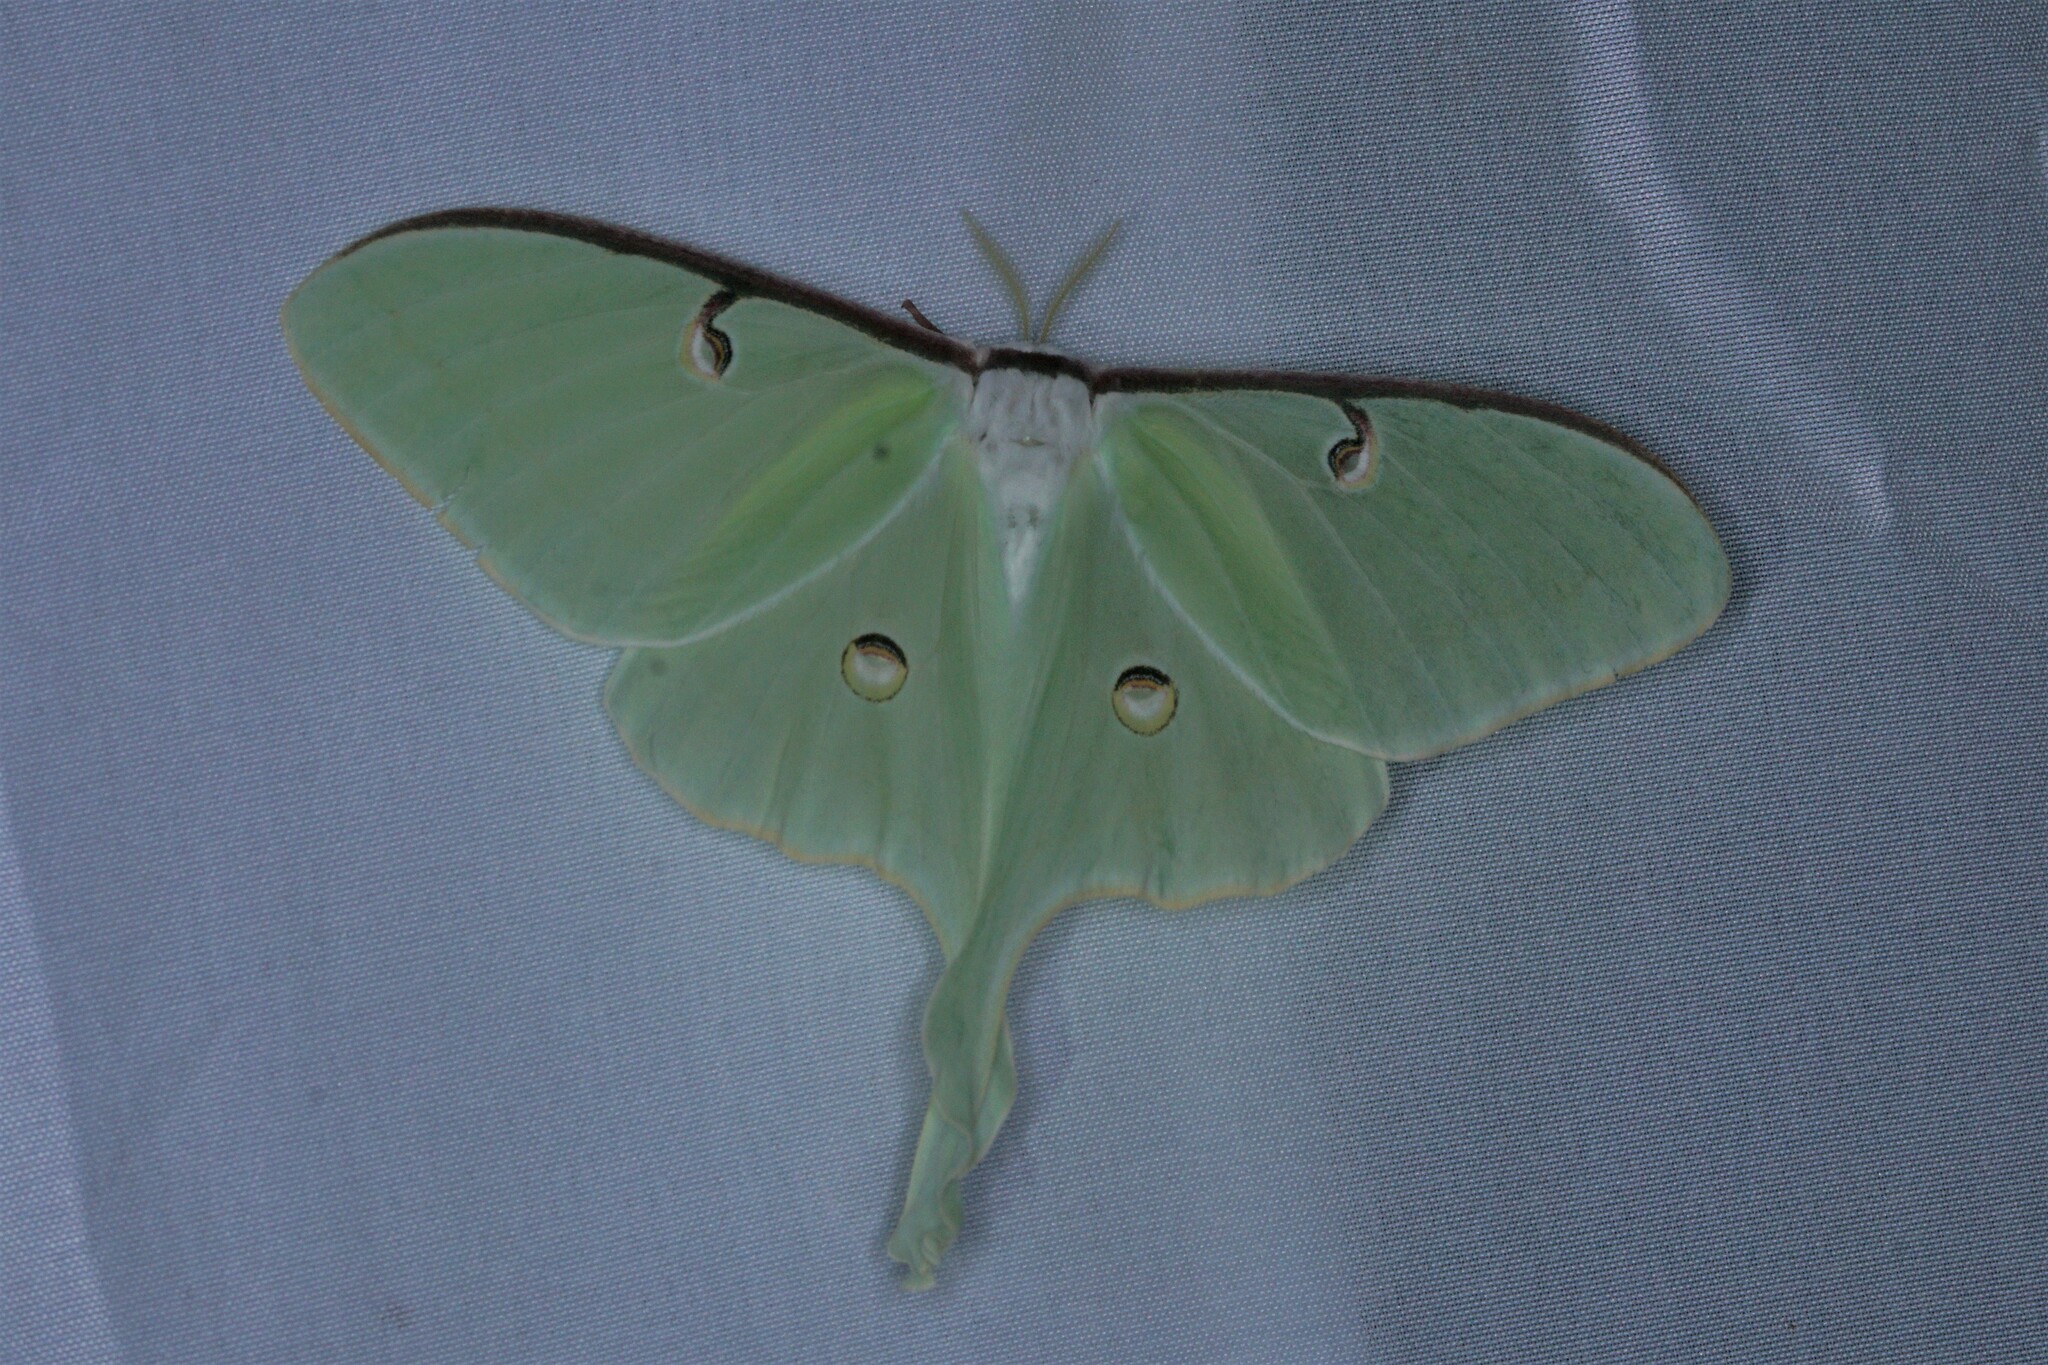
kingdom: Animalia
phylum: Arthropoda
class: Insecta
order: Lepidoptera
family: Saturniidae
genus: Actias
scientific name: Actias luna
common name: Luna moth
